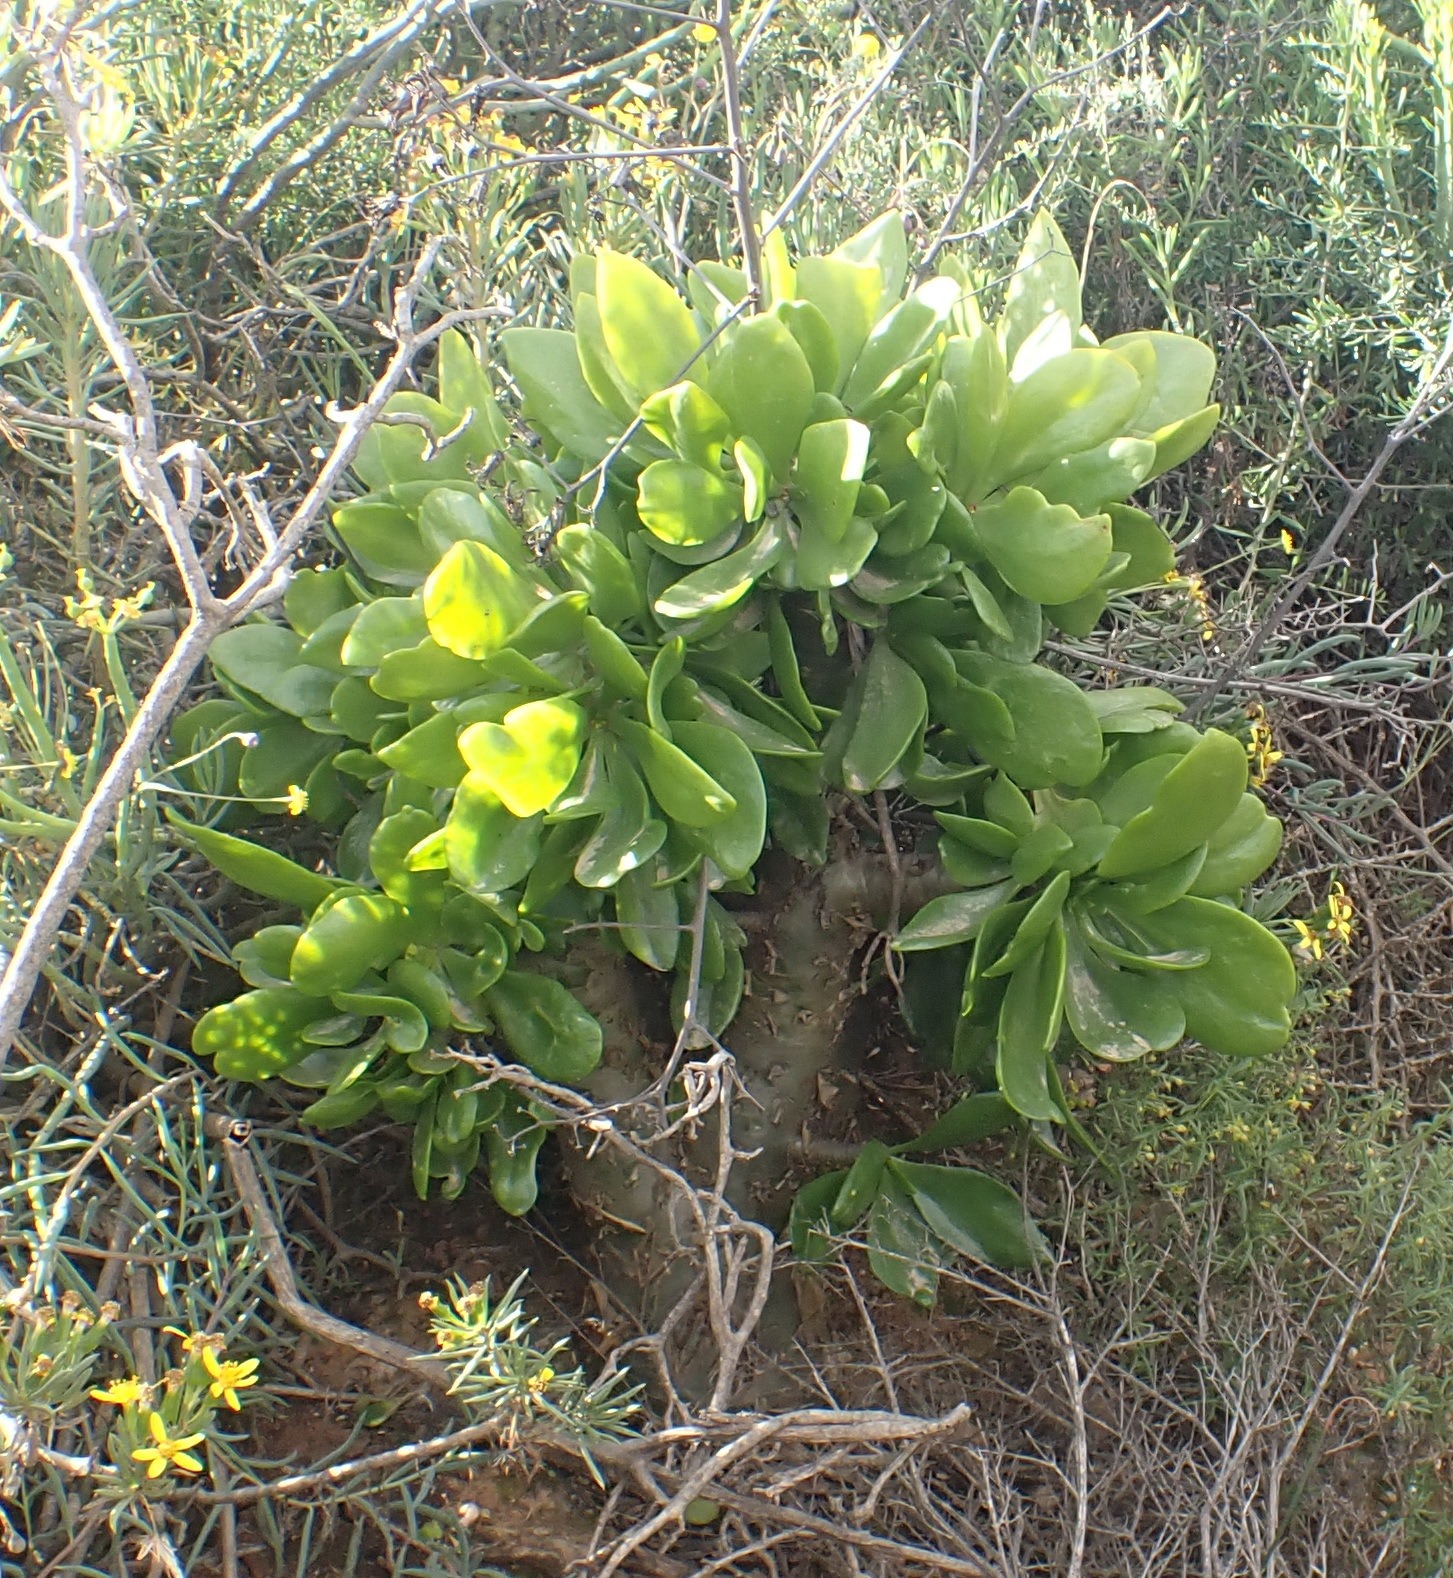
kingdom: Plantae
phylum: Tracheophyta
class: Magnoliopsida
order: Saxifragales
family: Crassulaceae
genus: Tylecodon
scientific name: Tylecodon paniculatus
